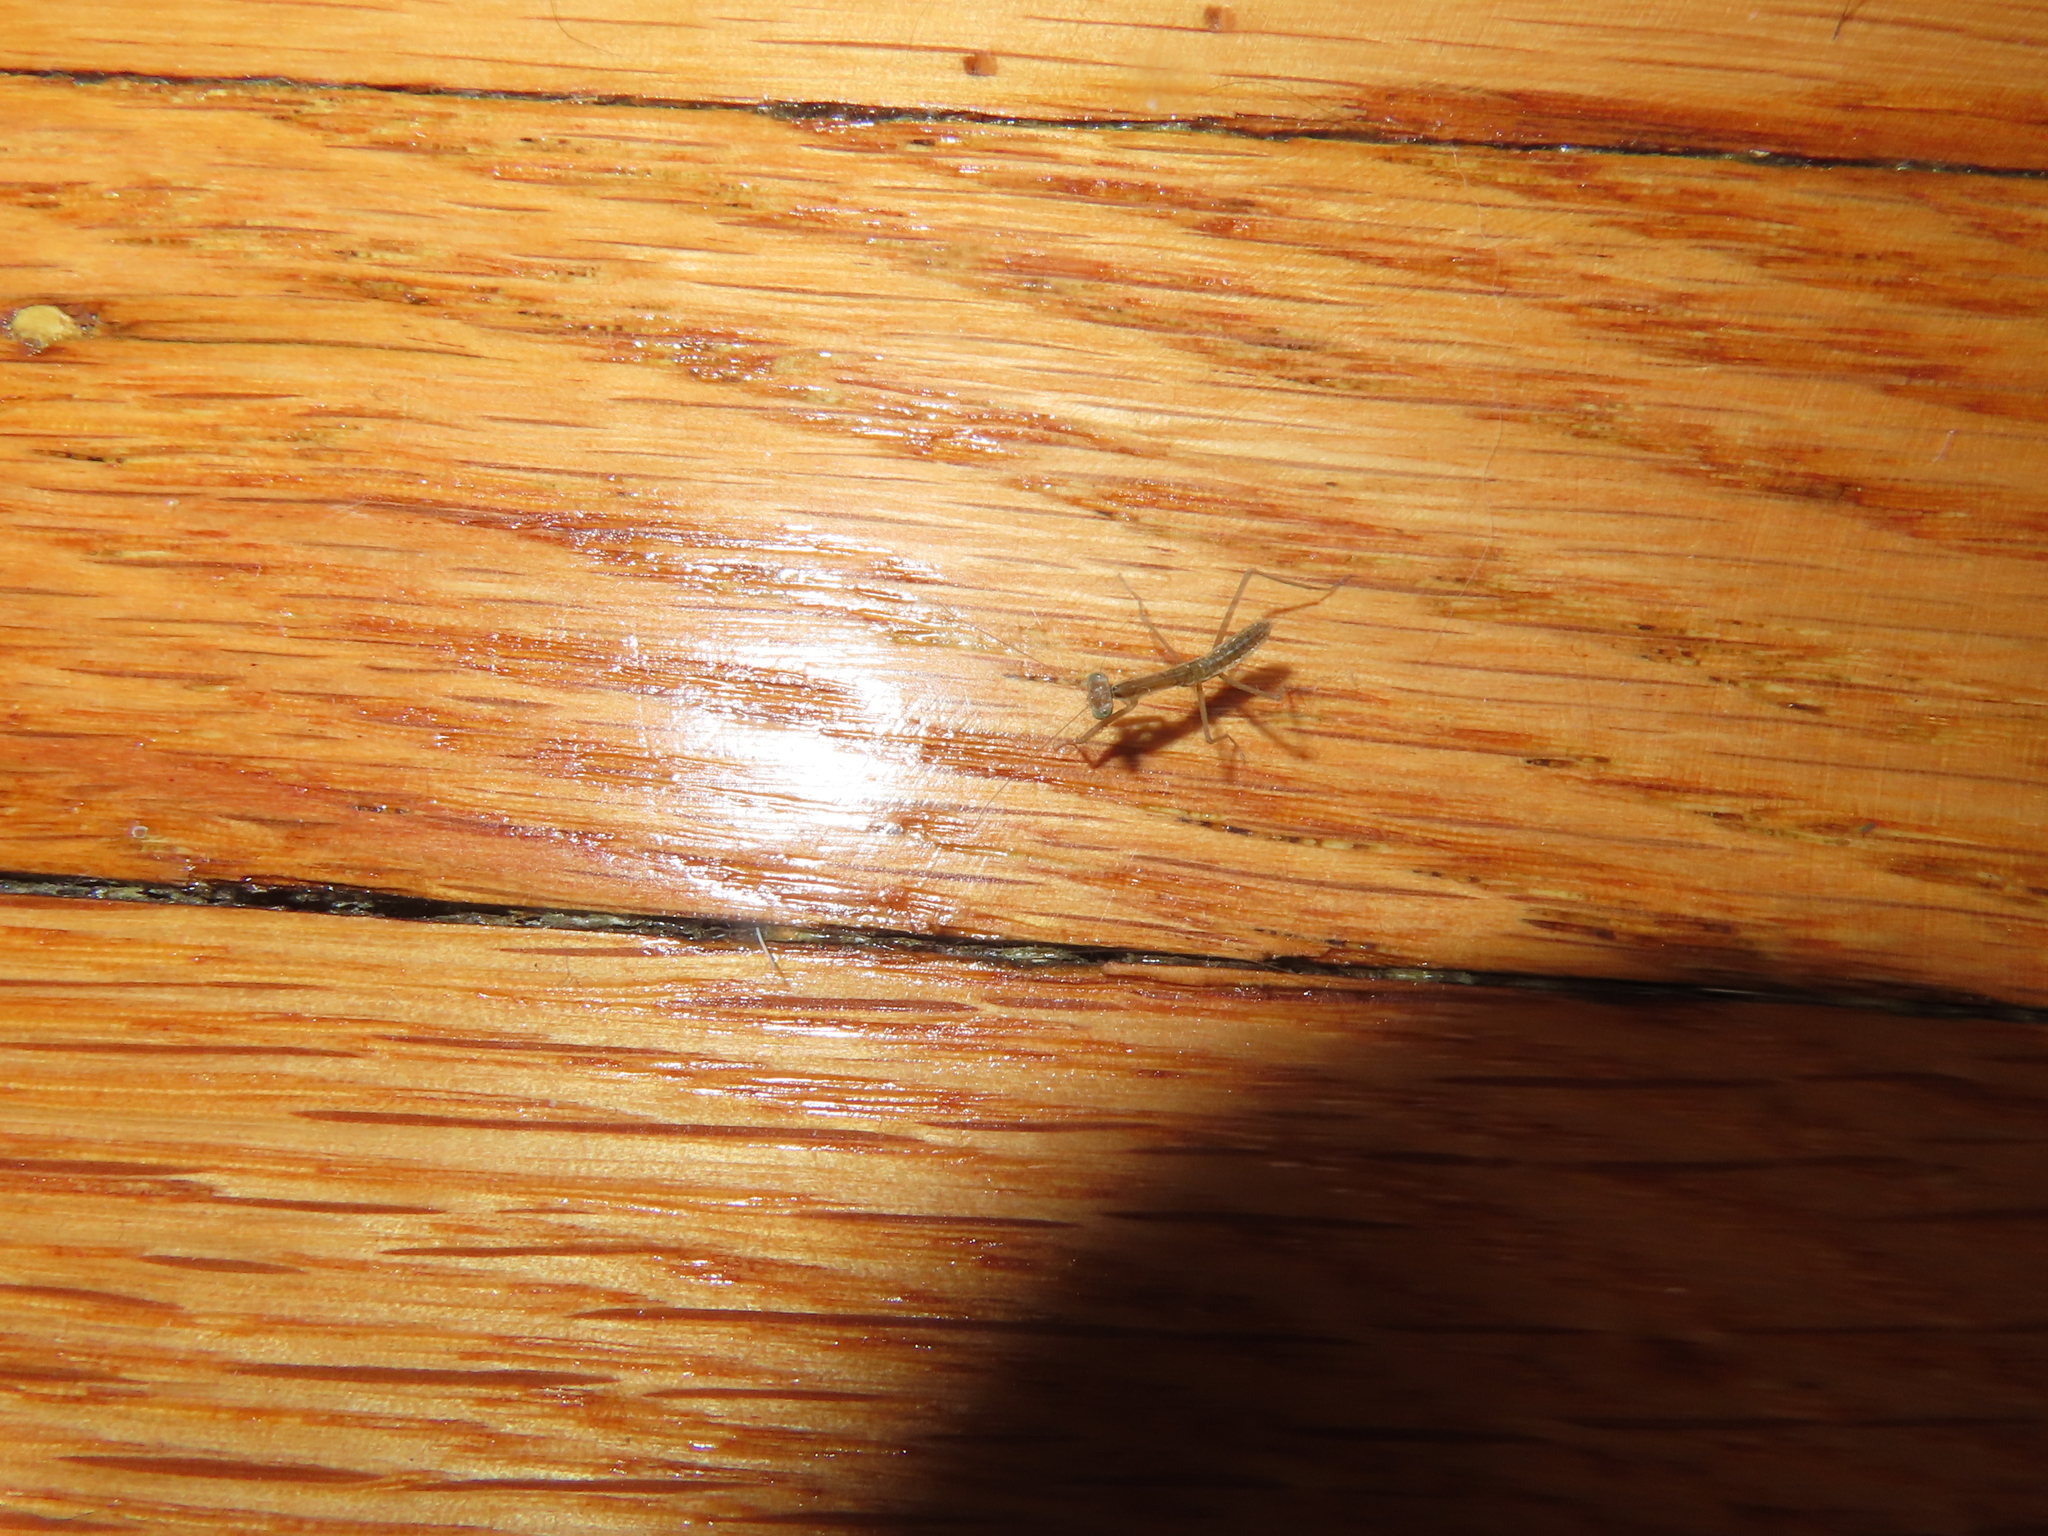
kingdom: Animalia
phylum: Arthropoda
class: Insecta
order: Mantodea
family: Mantidae
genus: Tenodera
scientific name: Tenodera sinensis
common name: Chinese mantis
